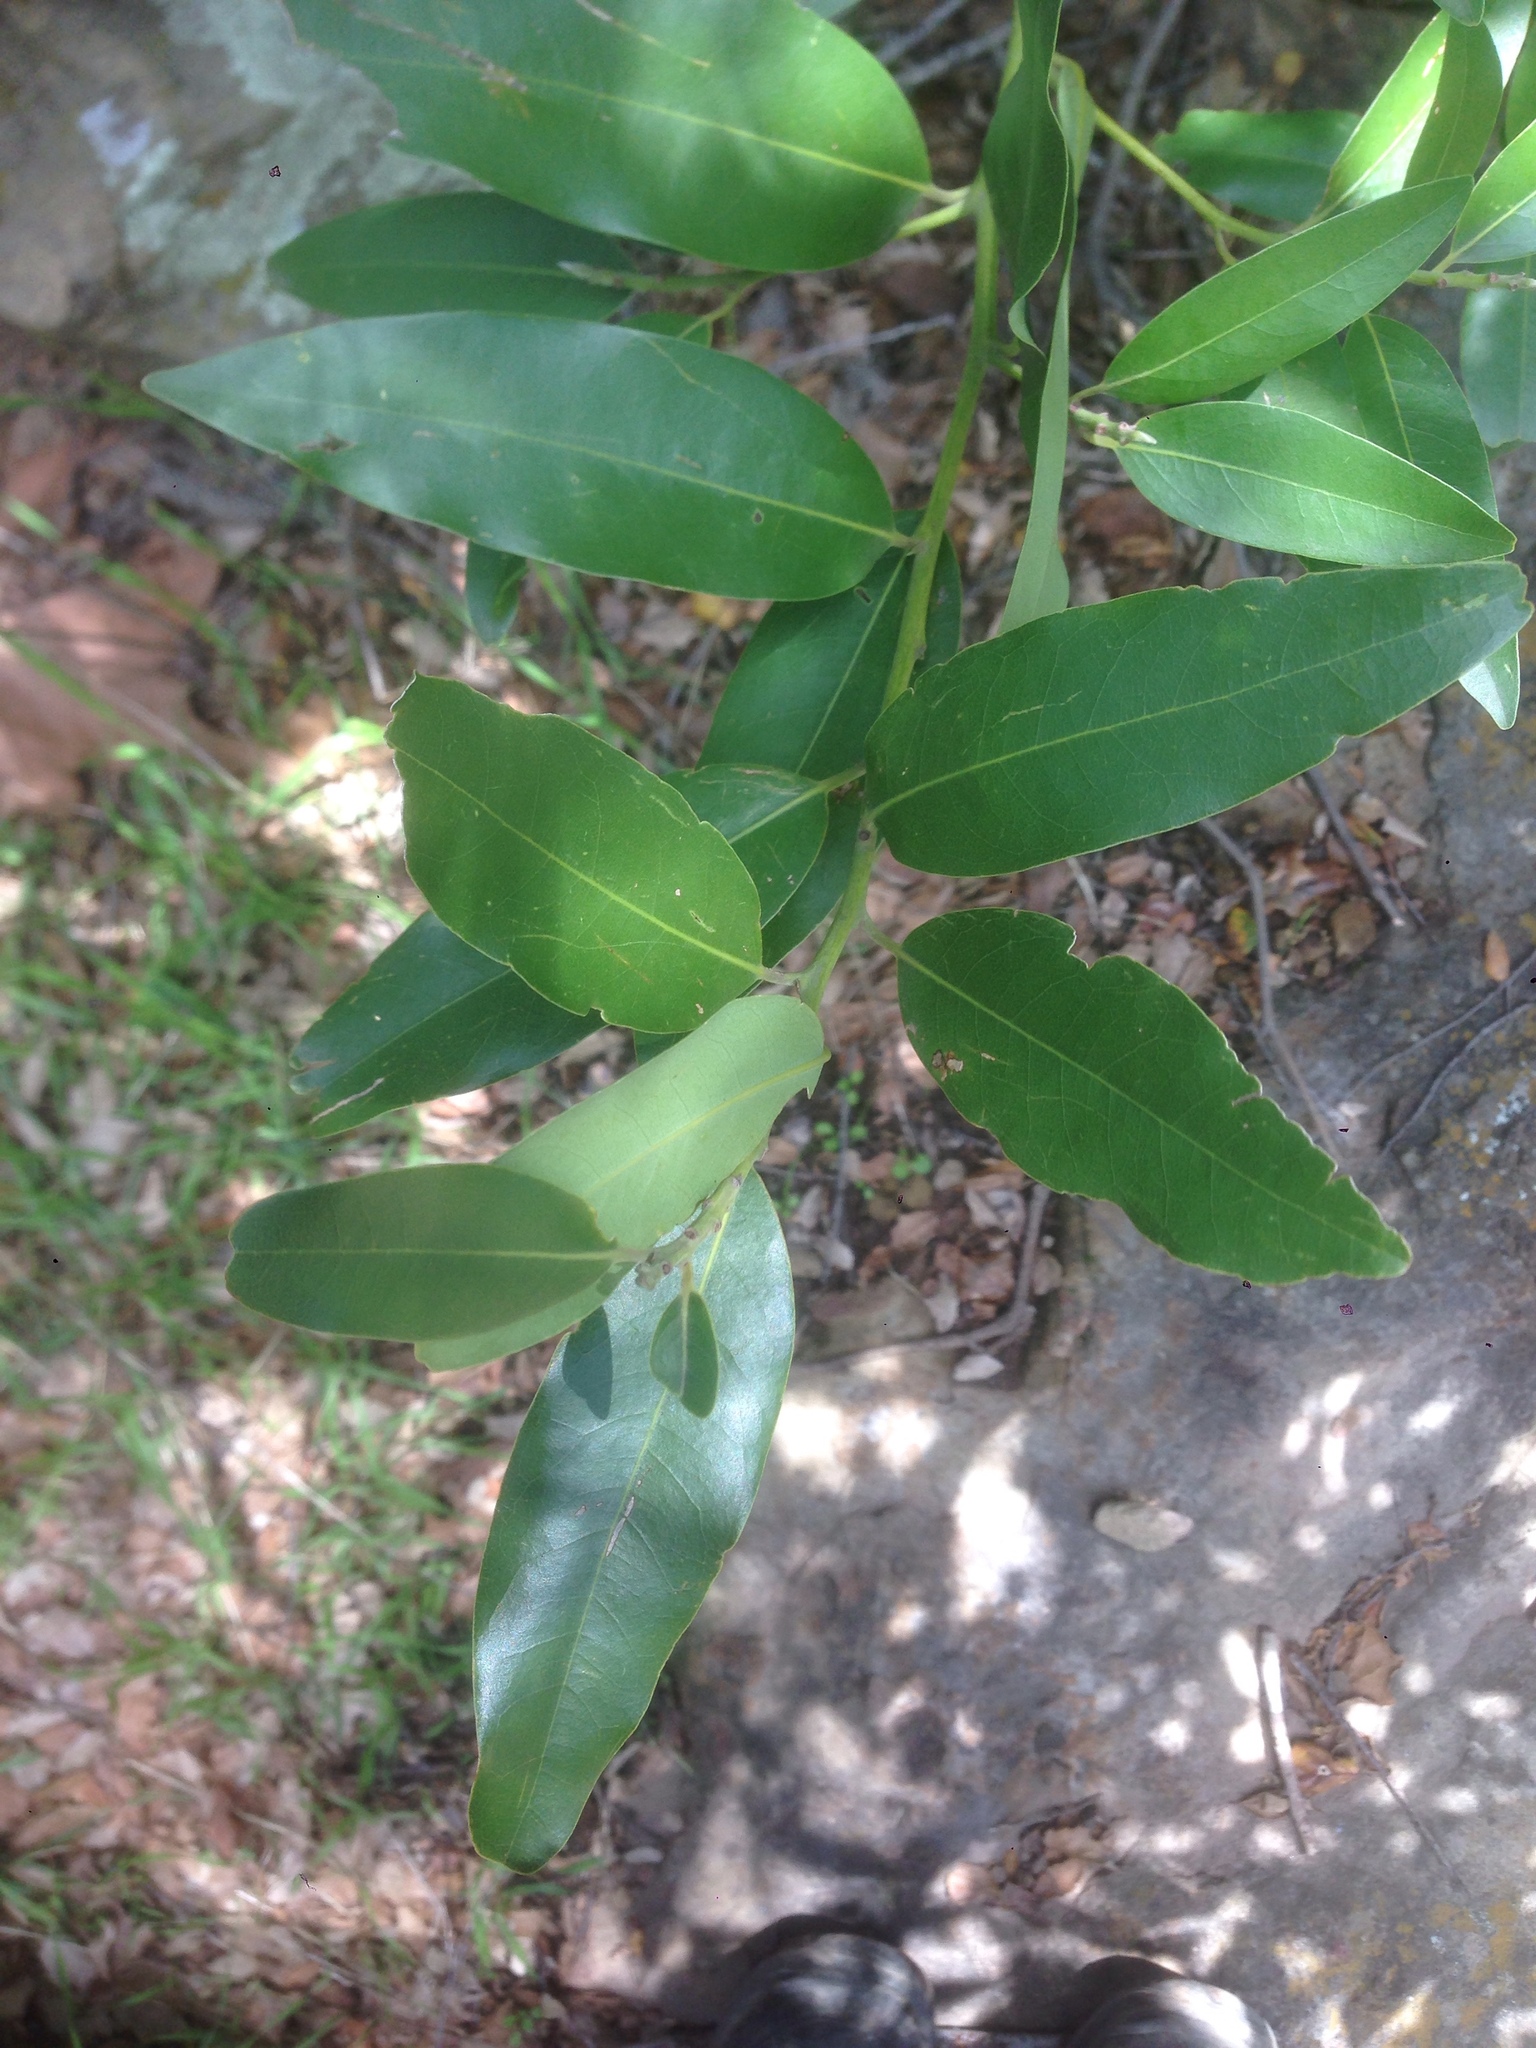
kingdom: Plantae
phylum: Tracheophyta
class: Magnoliopsida
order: Laurales
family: Lauraceae
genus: Umbellularia
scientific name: Umbellularia californica
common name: California bay
